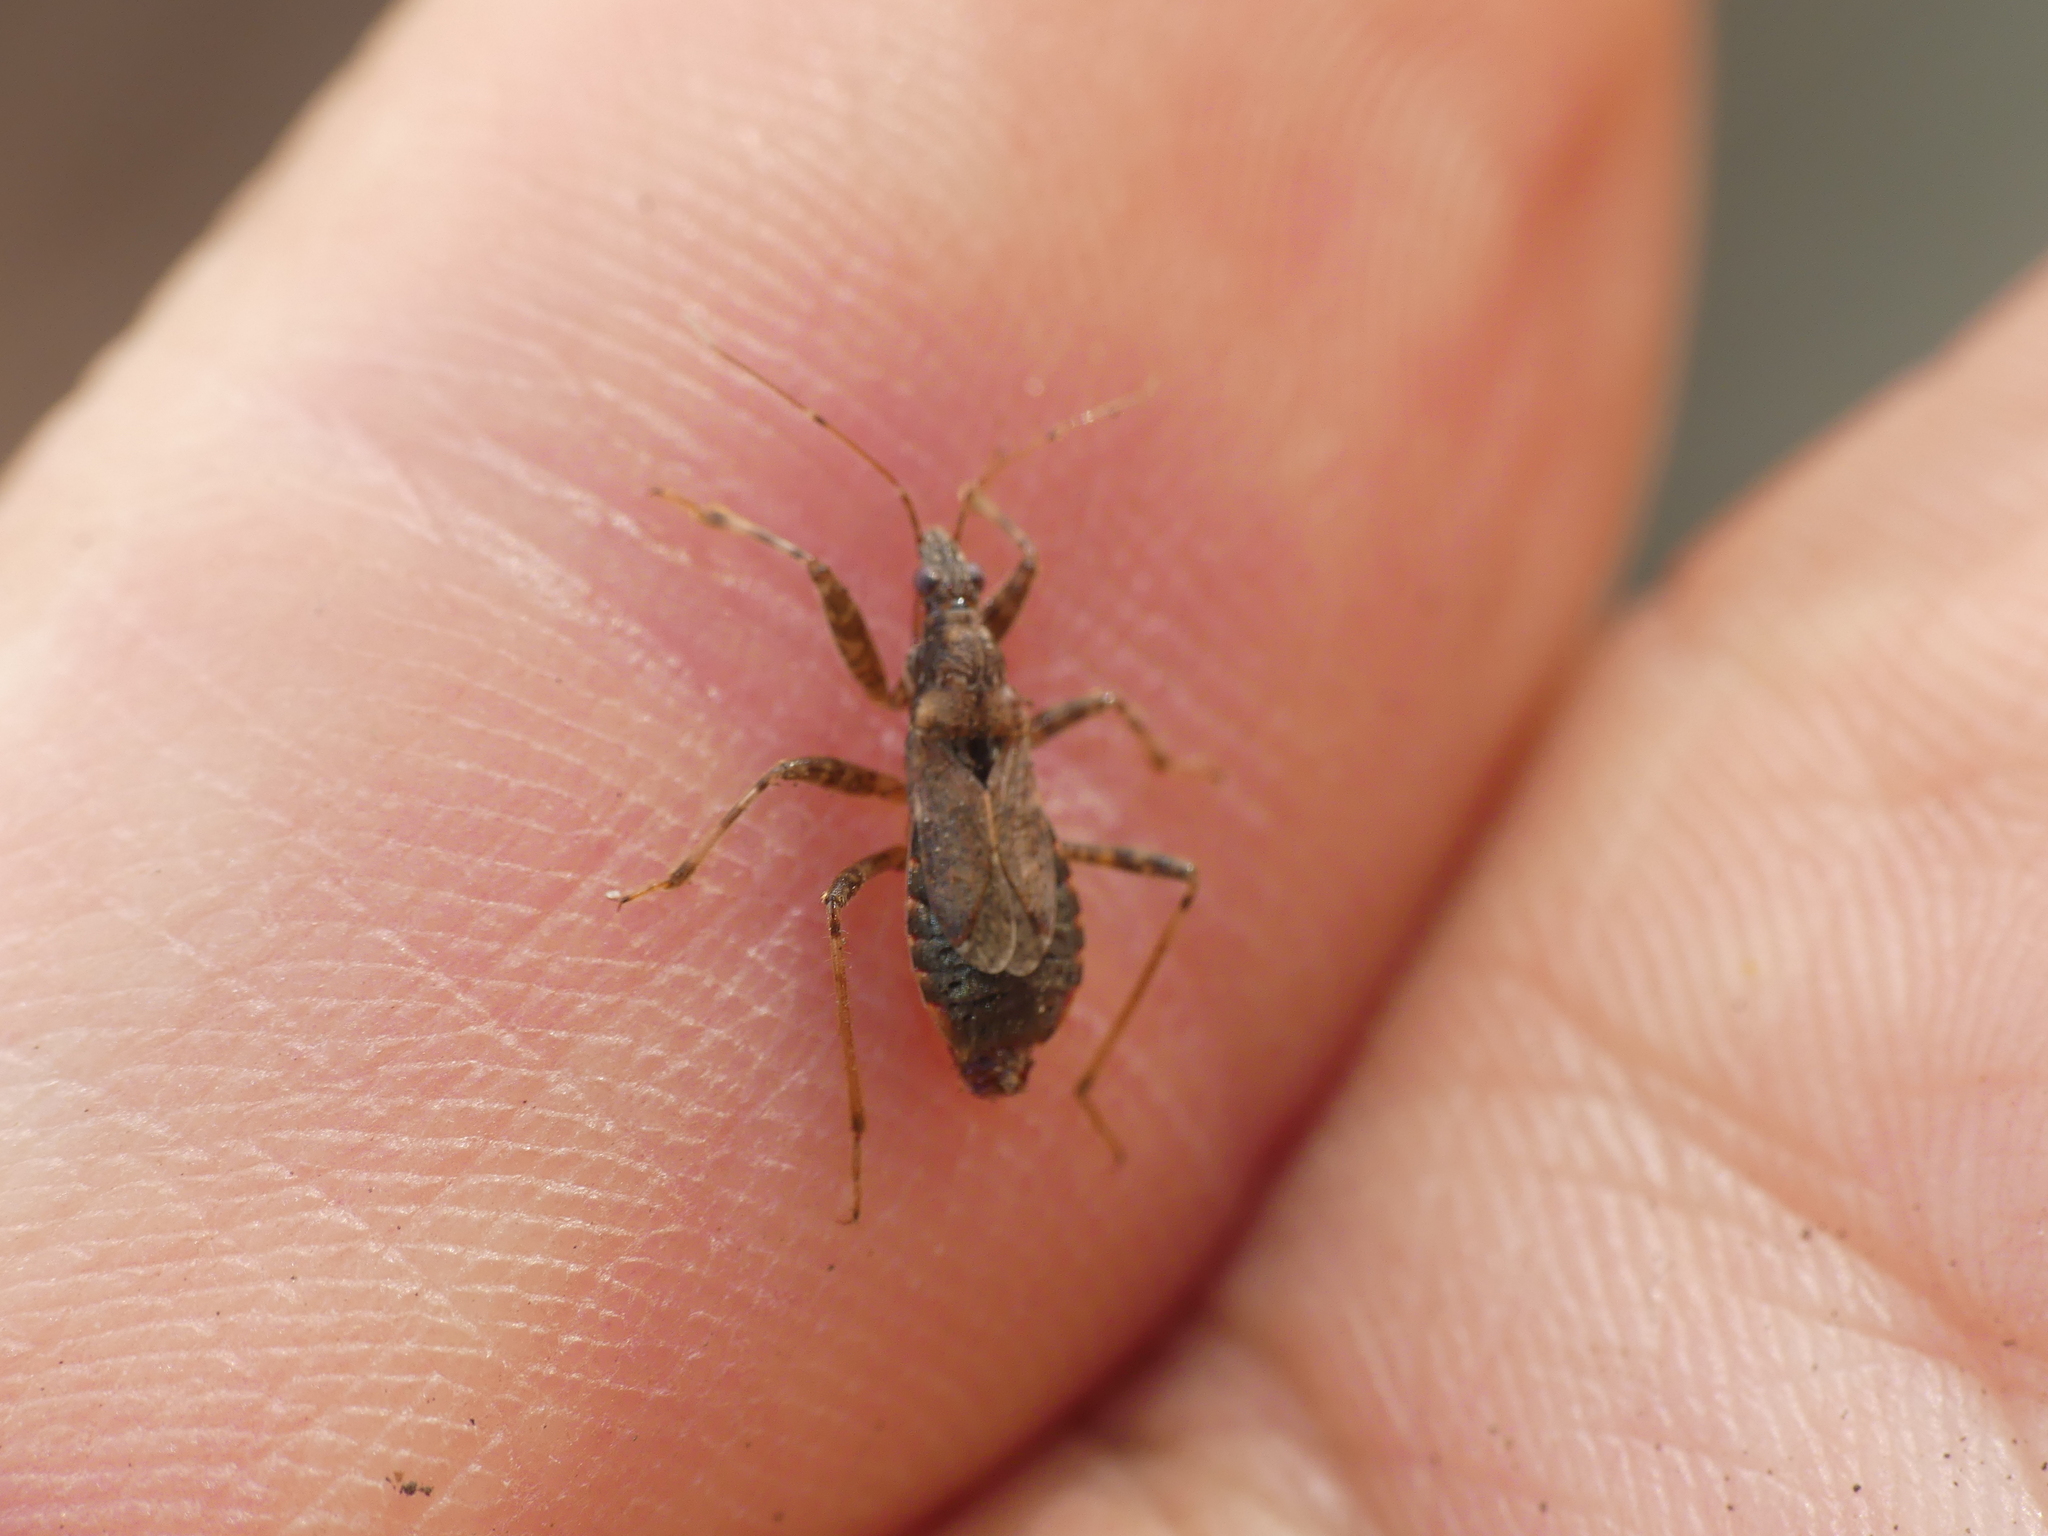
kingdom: Animalia
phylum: Arthropoda
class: Insecta
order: Hemiptera
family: Nabidae
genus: Himacerus
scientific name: Himacerus mirmicoides
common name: Ant damsel bug
